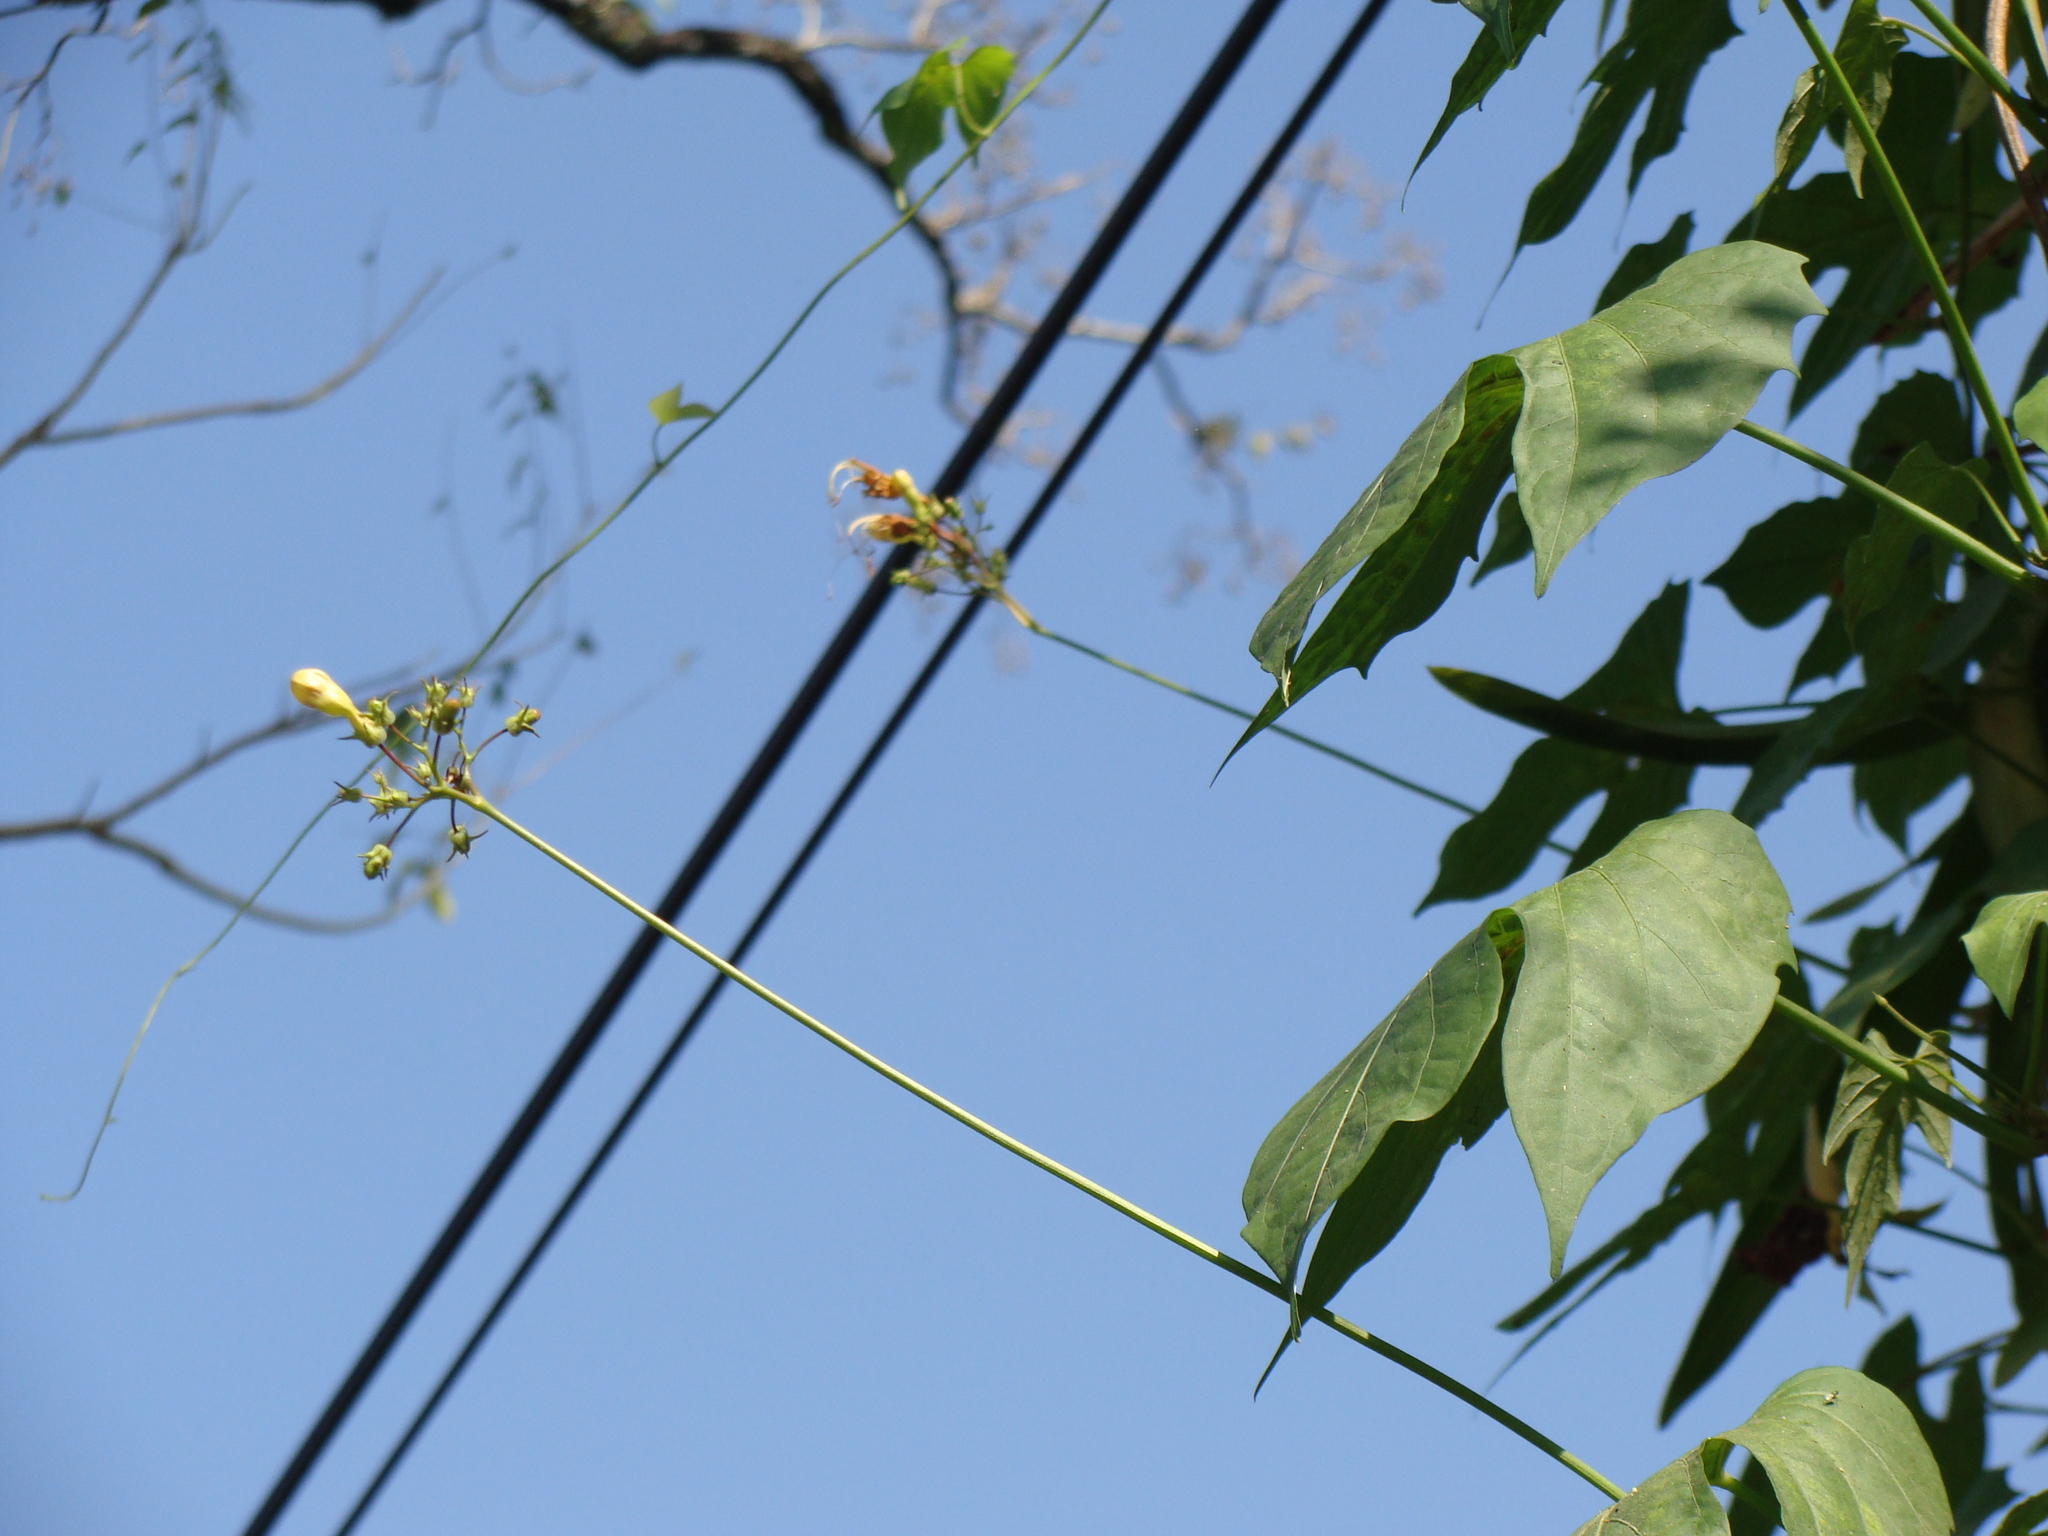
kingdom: Plantae
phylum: Tracheophyta
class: Magnoliopsida
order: Solanales
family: Convolvulaceae
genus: Ipomoea
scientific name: Ipomoea neei
